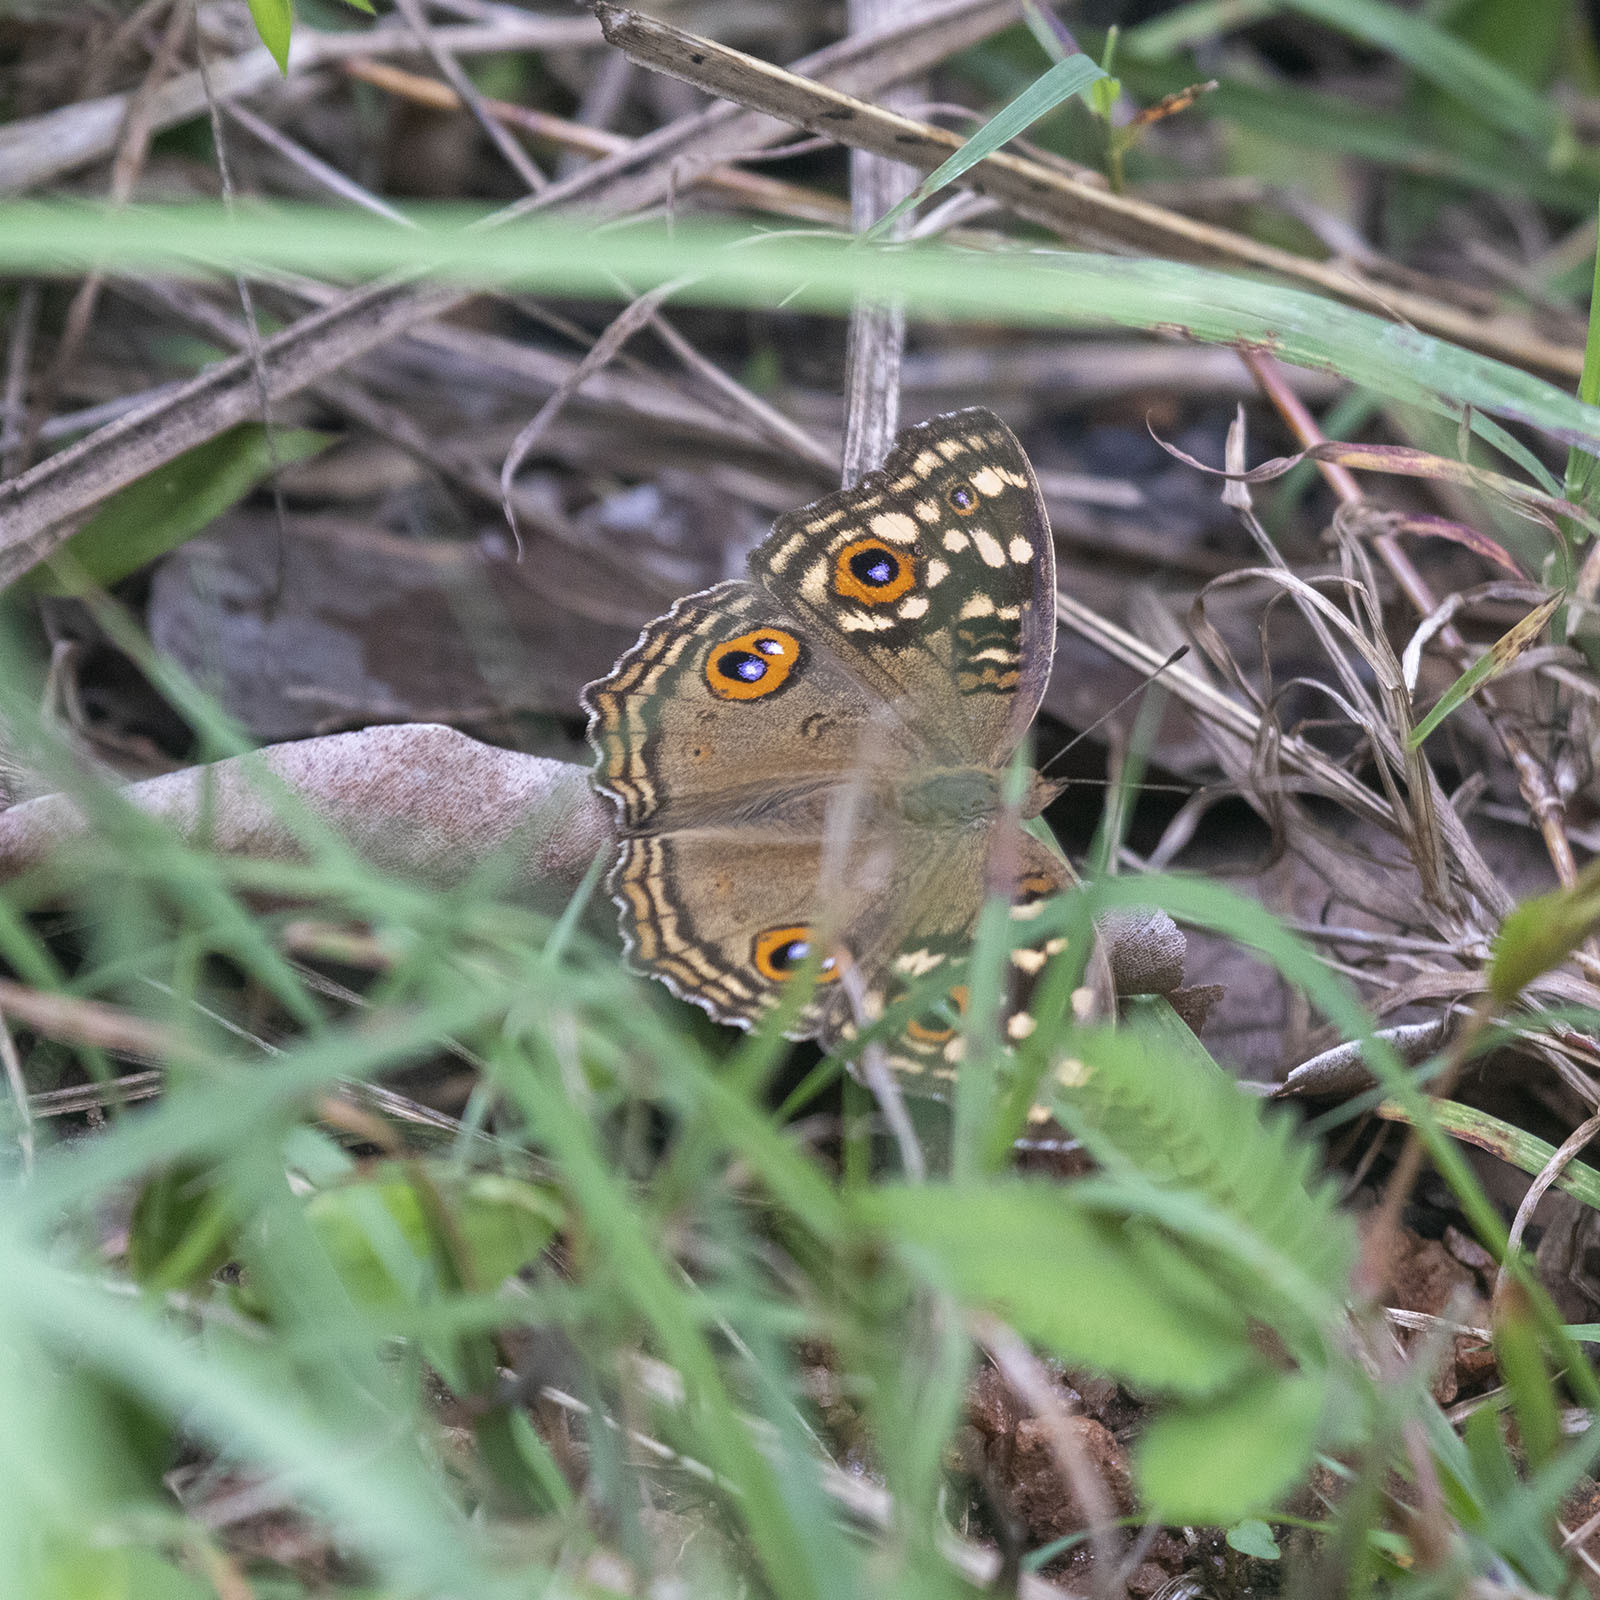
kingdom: Animalia
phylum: Arthropoda
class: Insecta
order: Lepidoptera
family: Nymphalidae
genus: Junonia
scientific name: Junonia lemonias
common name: Lemon pansy
